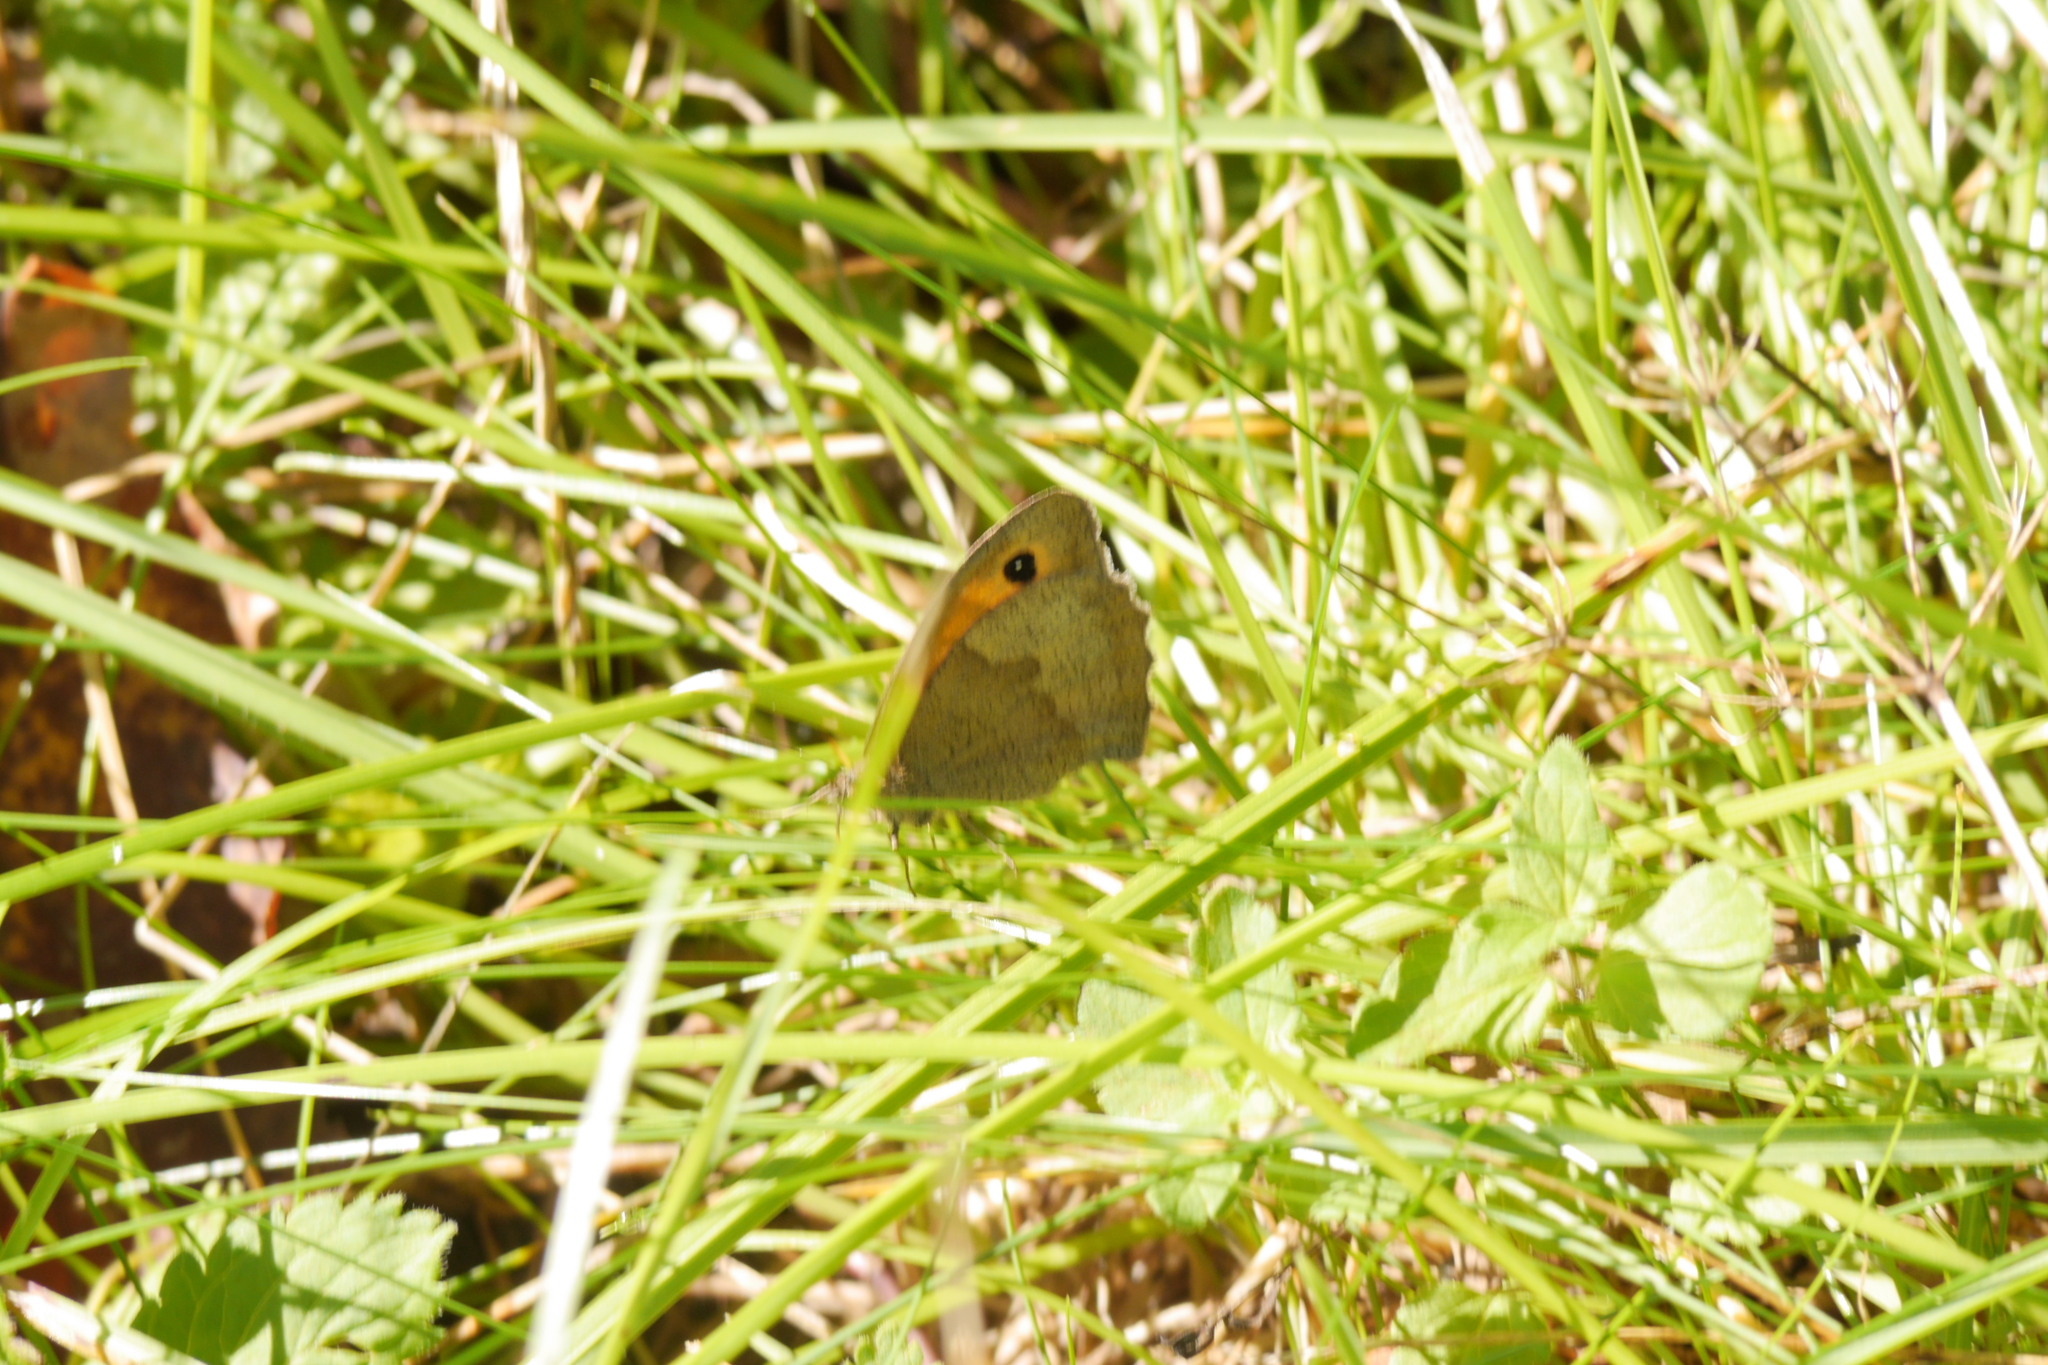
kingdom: Animalia
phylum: Arthropoda
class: Insecta
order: Lepidoptera
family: Nymphalidae
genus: Maniola
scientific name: Maniola jurtina
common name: Meadow brown
